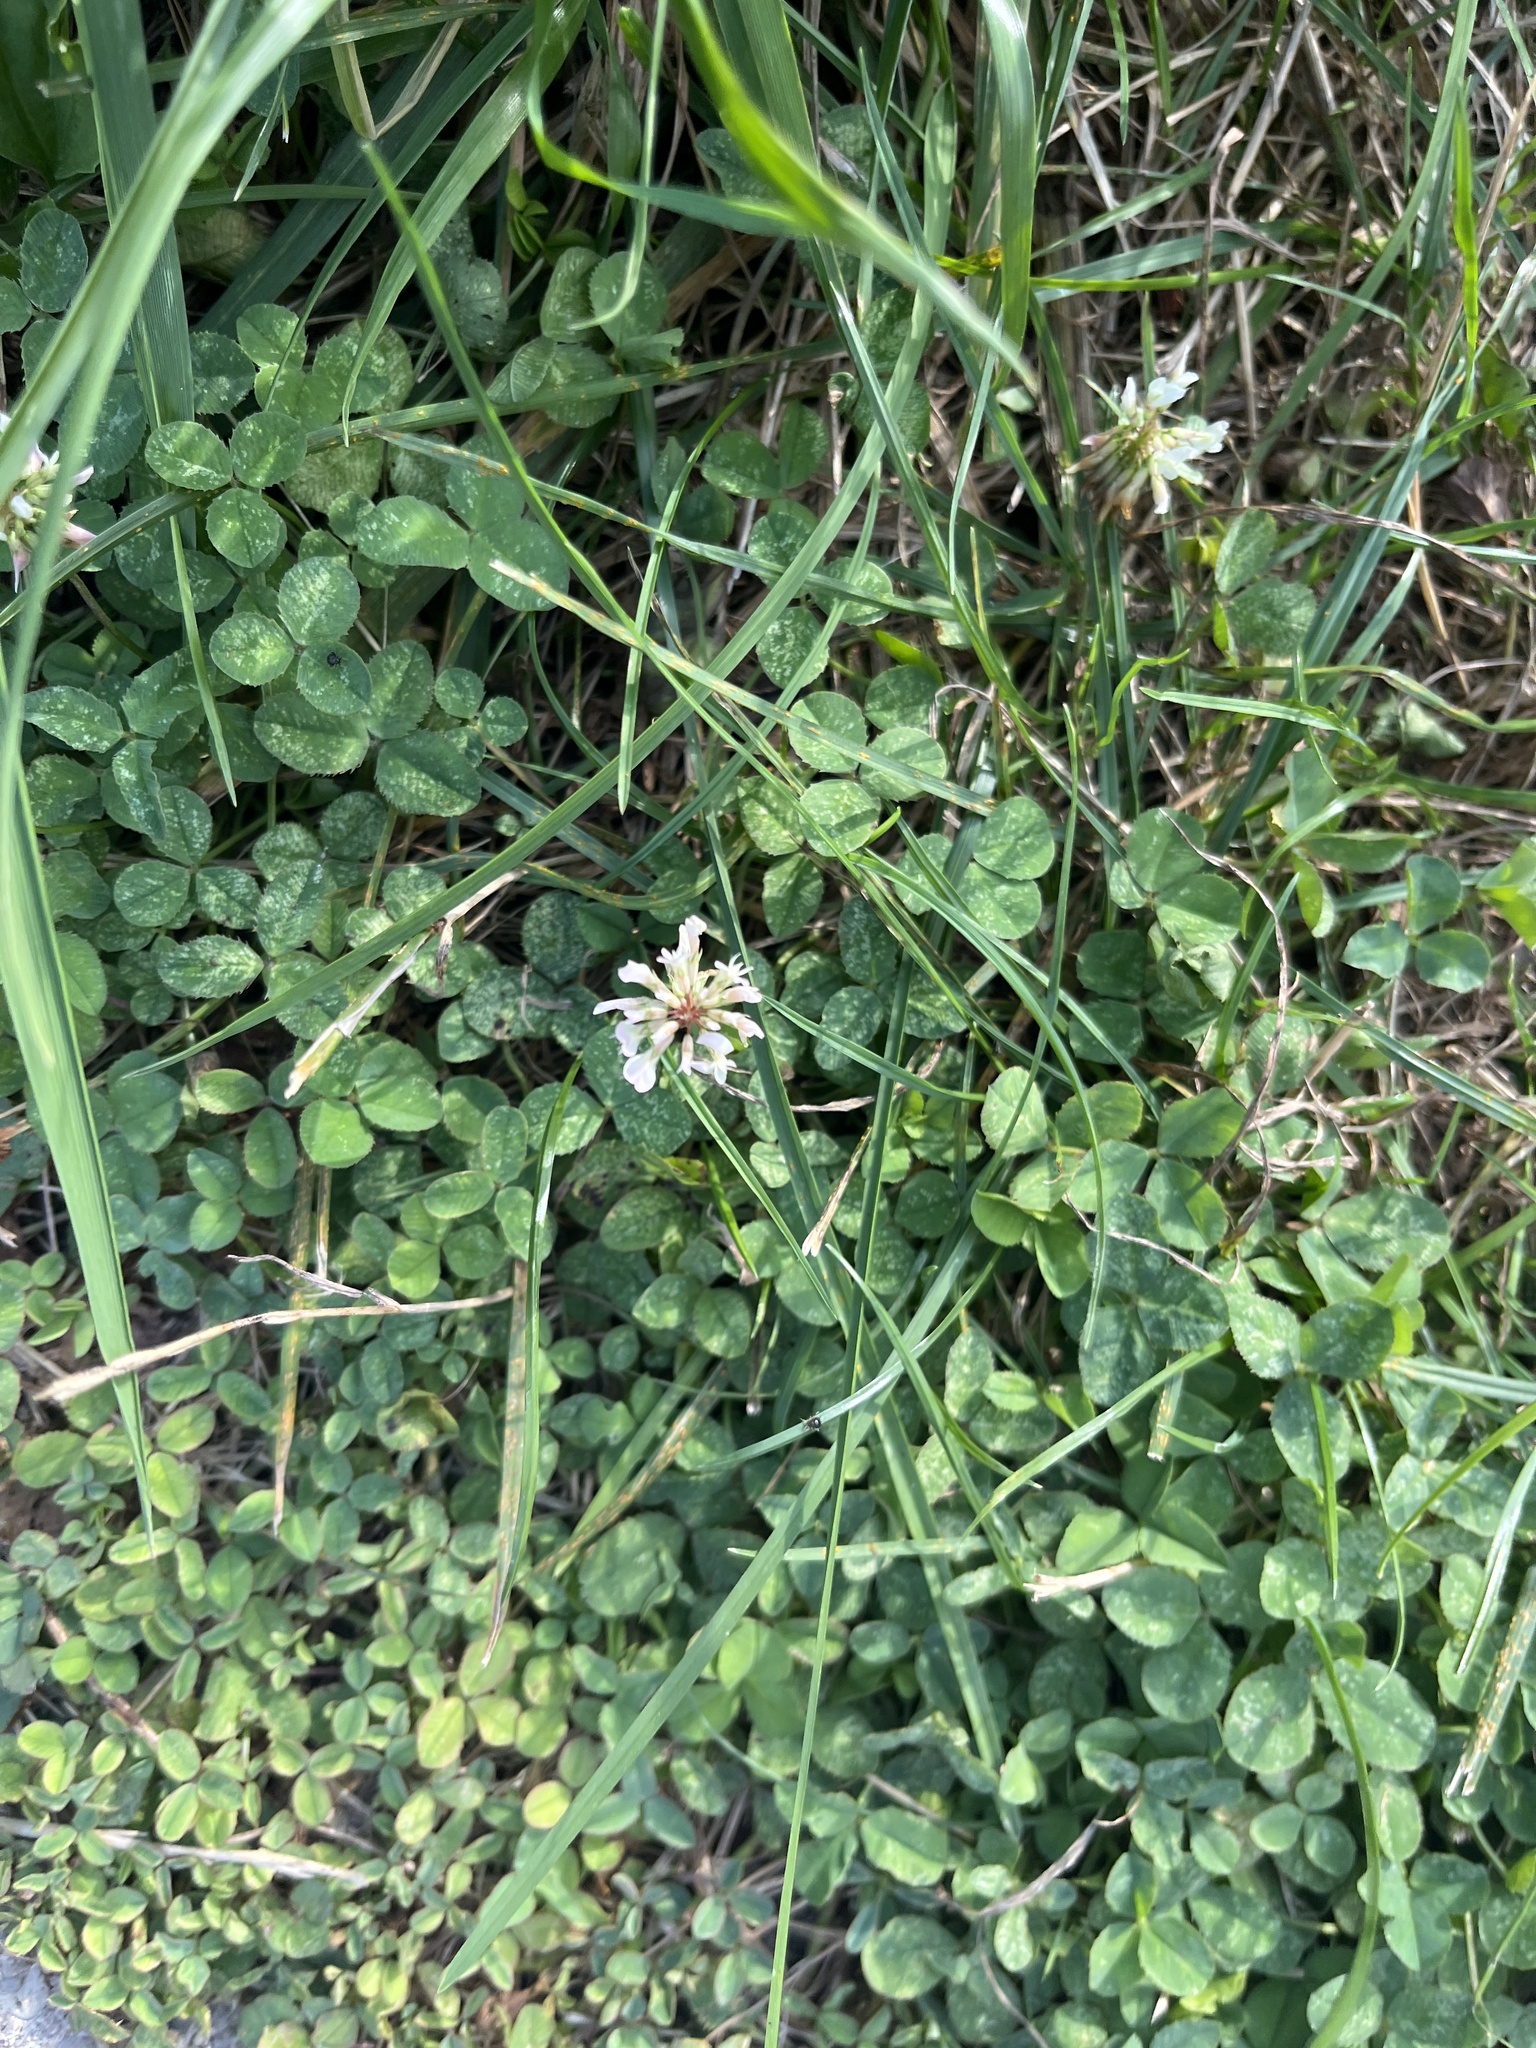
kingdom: Plantae
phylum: Tracheophyta
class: Magnoliopsida
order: Fabales
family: Fabaceae
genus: Trifolium
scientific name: Trifolium repens
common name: White clover
